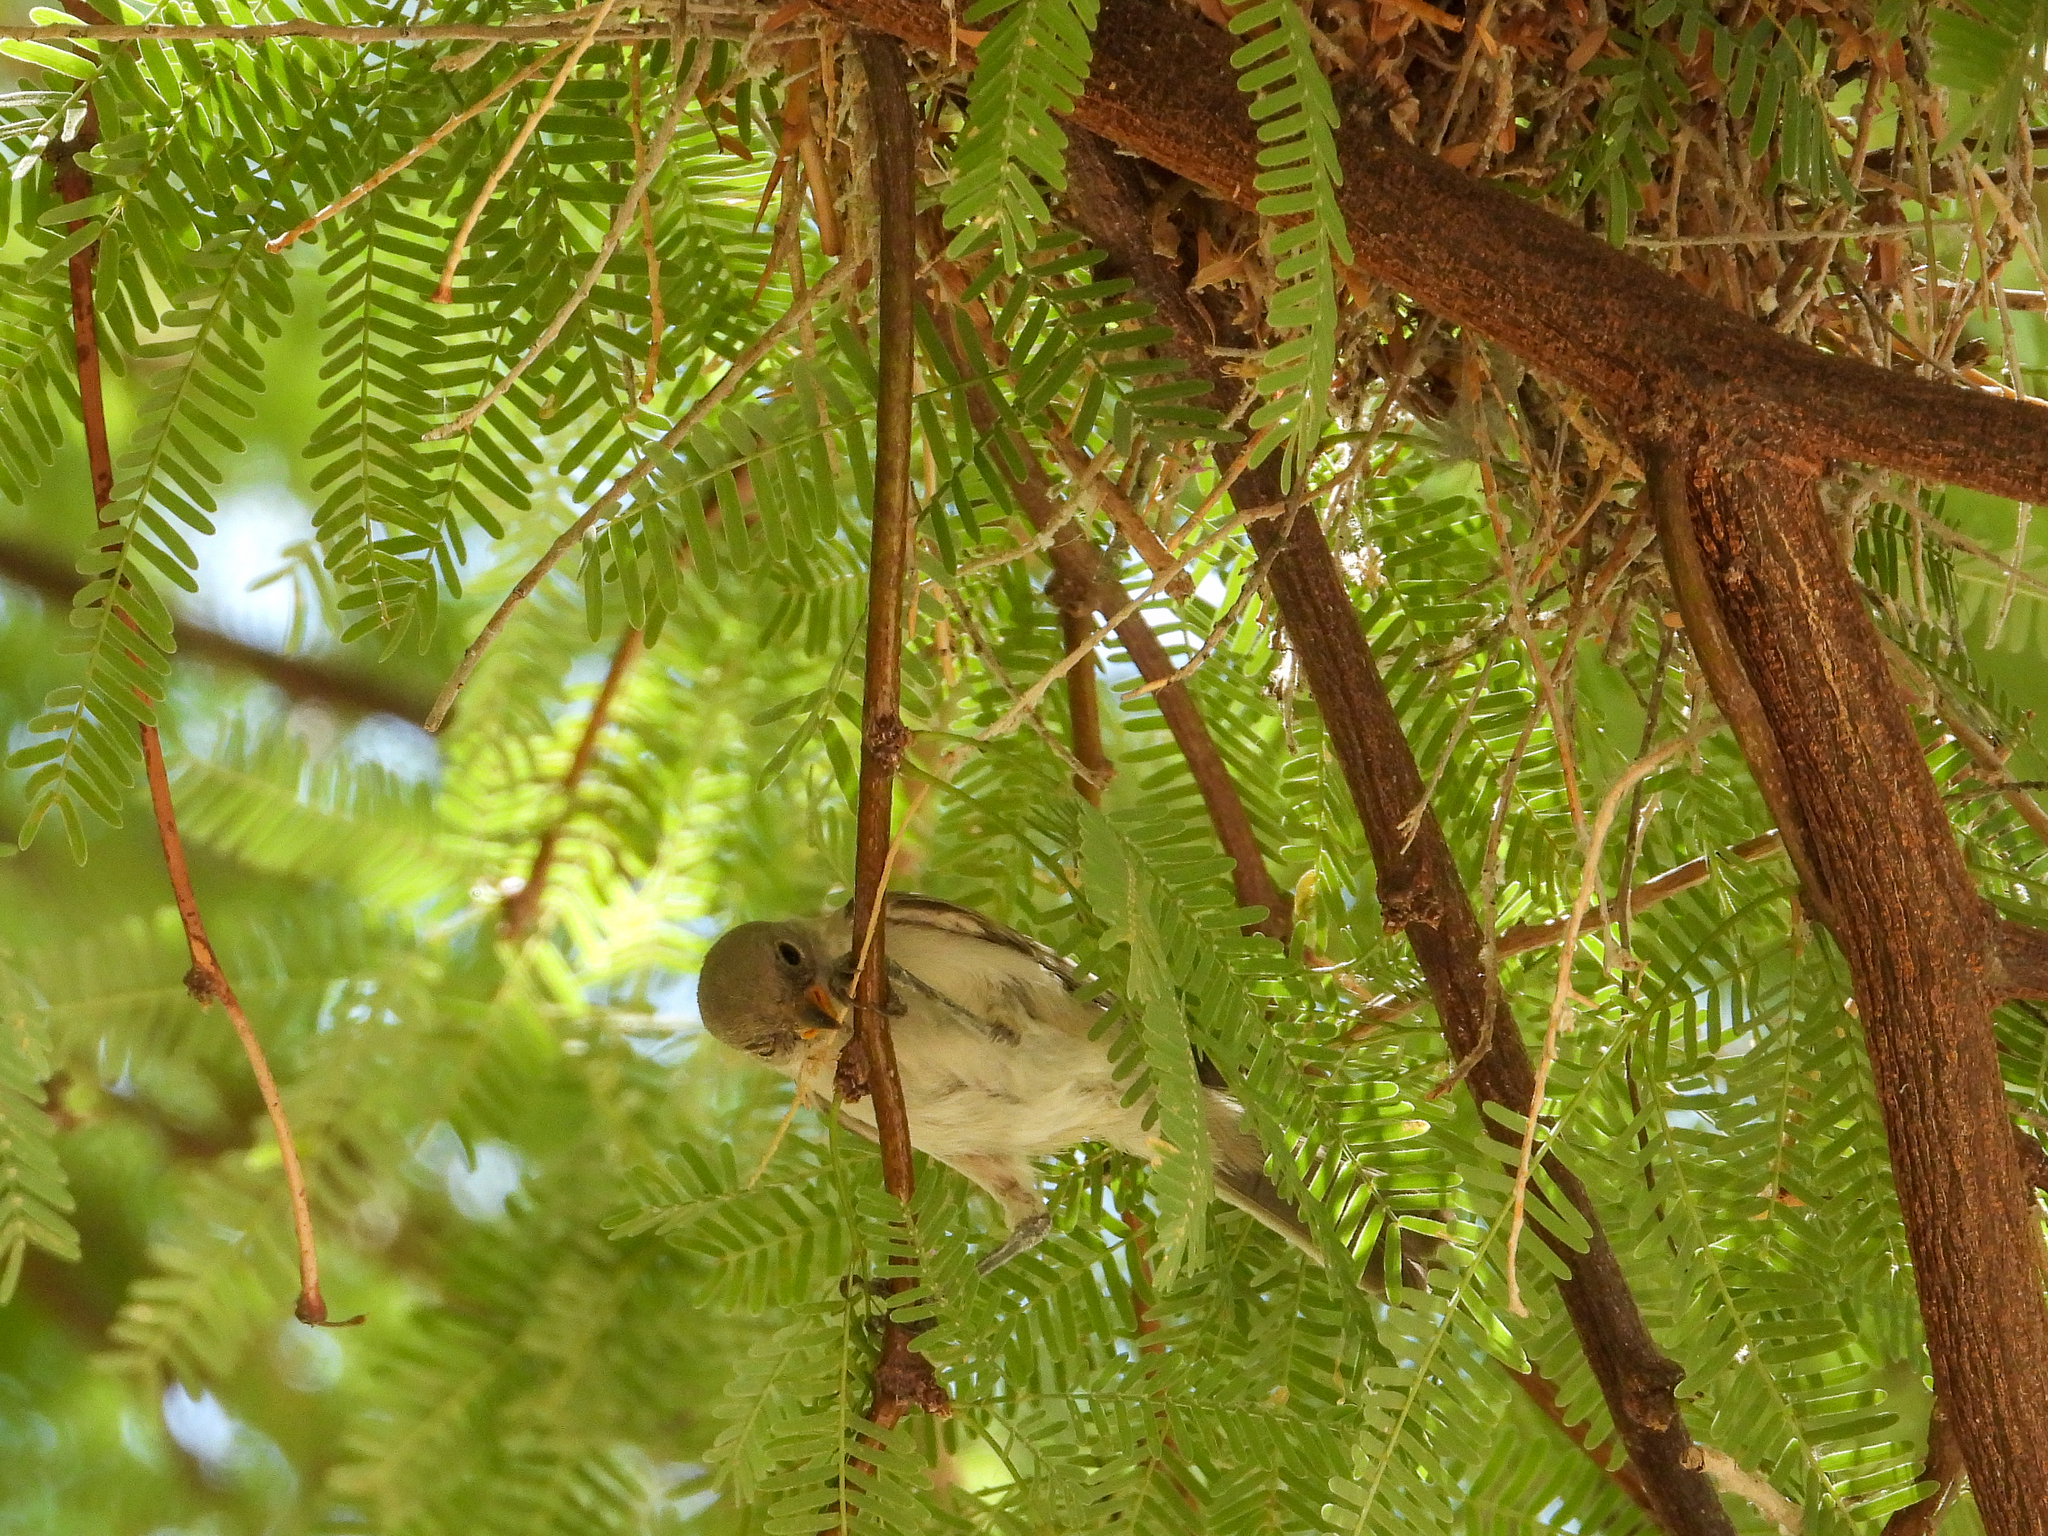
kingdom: Animalia
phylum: Chordata
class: Aves
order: Passeriformes
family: Remizidae
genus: Auriparus
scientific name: Auriparus flaviceps
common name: Verdin
